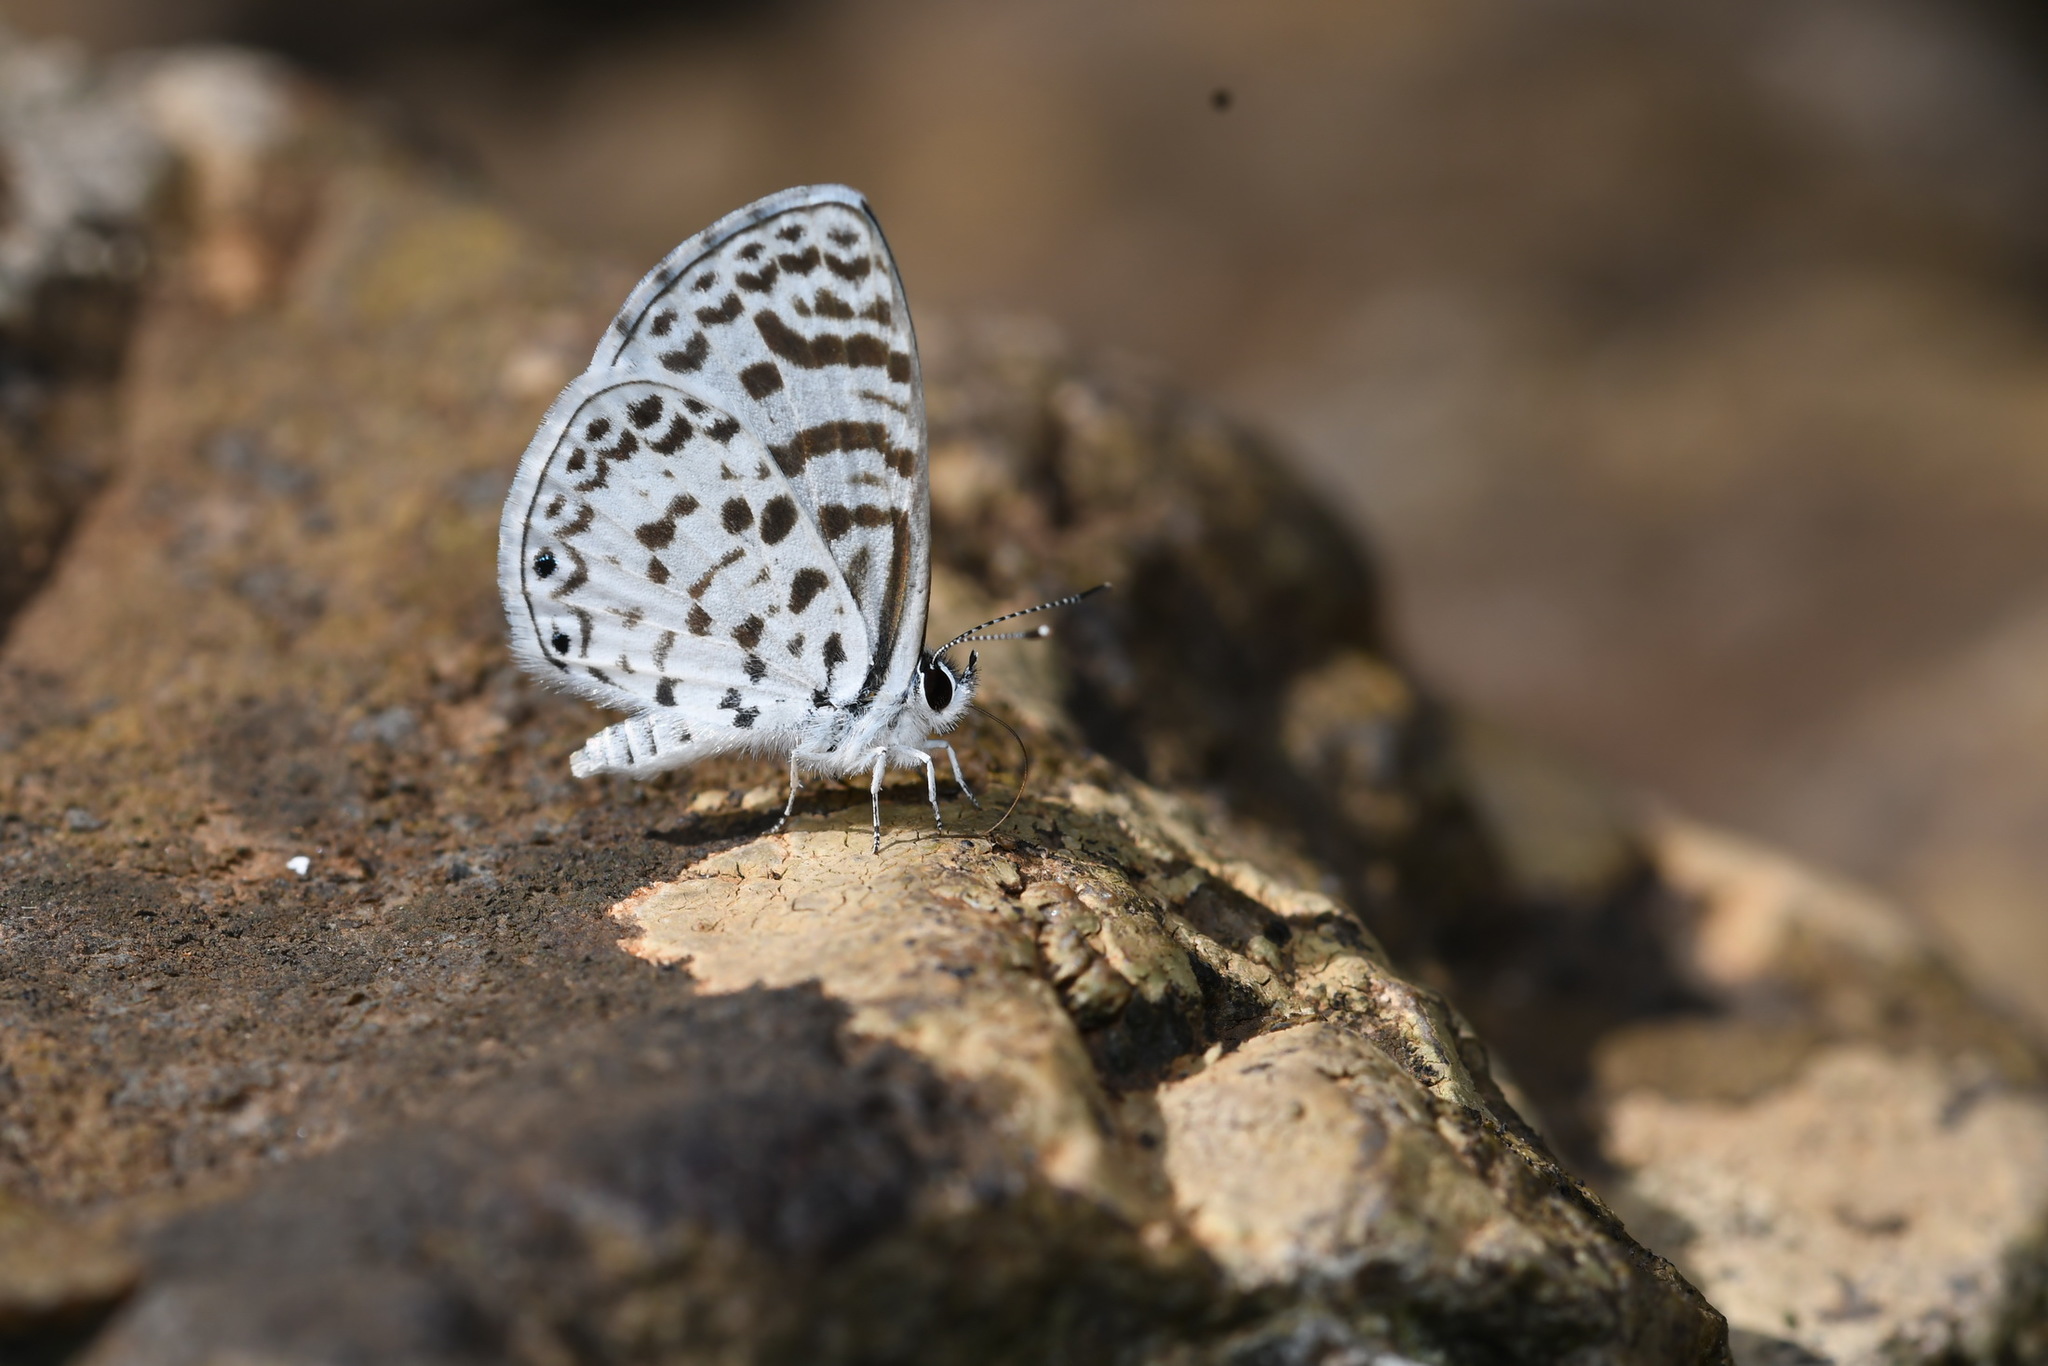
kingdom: Animalia
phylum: Arthropoda
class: Insecta
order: Lepidoptera
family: Lycaenidae
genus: Leptotes
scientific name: Leptotes cassius
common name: Cassius blue
